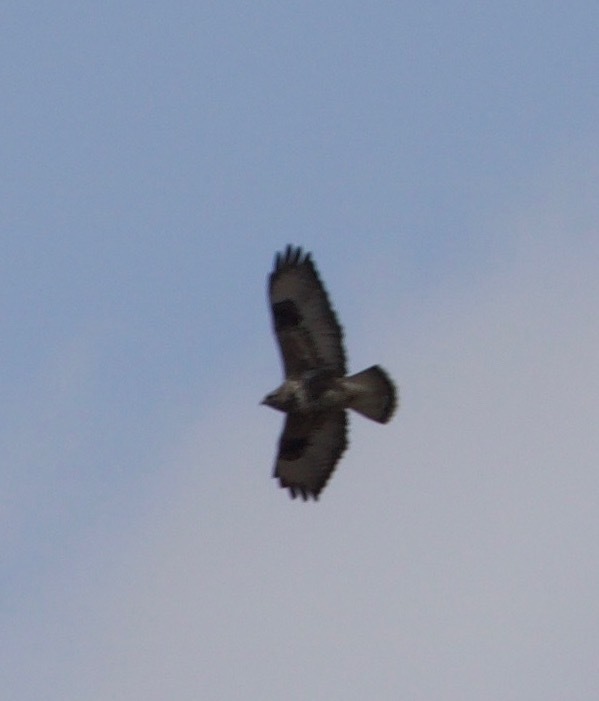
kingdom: Animalia
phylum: Chordata
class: Aves
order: Accipitriformes
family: Accipitridae
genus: Buteo
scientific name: Buteo lagopus
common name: Rough-legged buzzard
